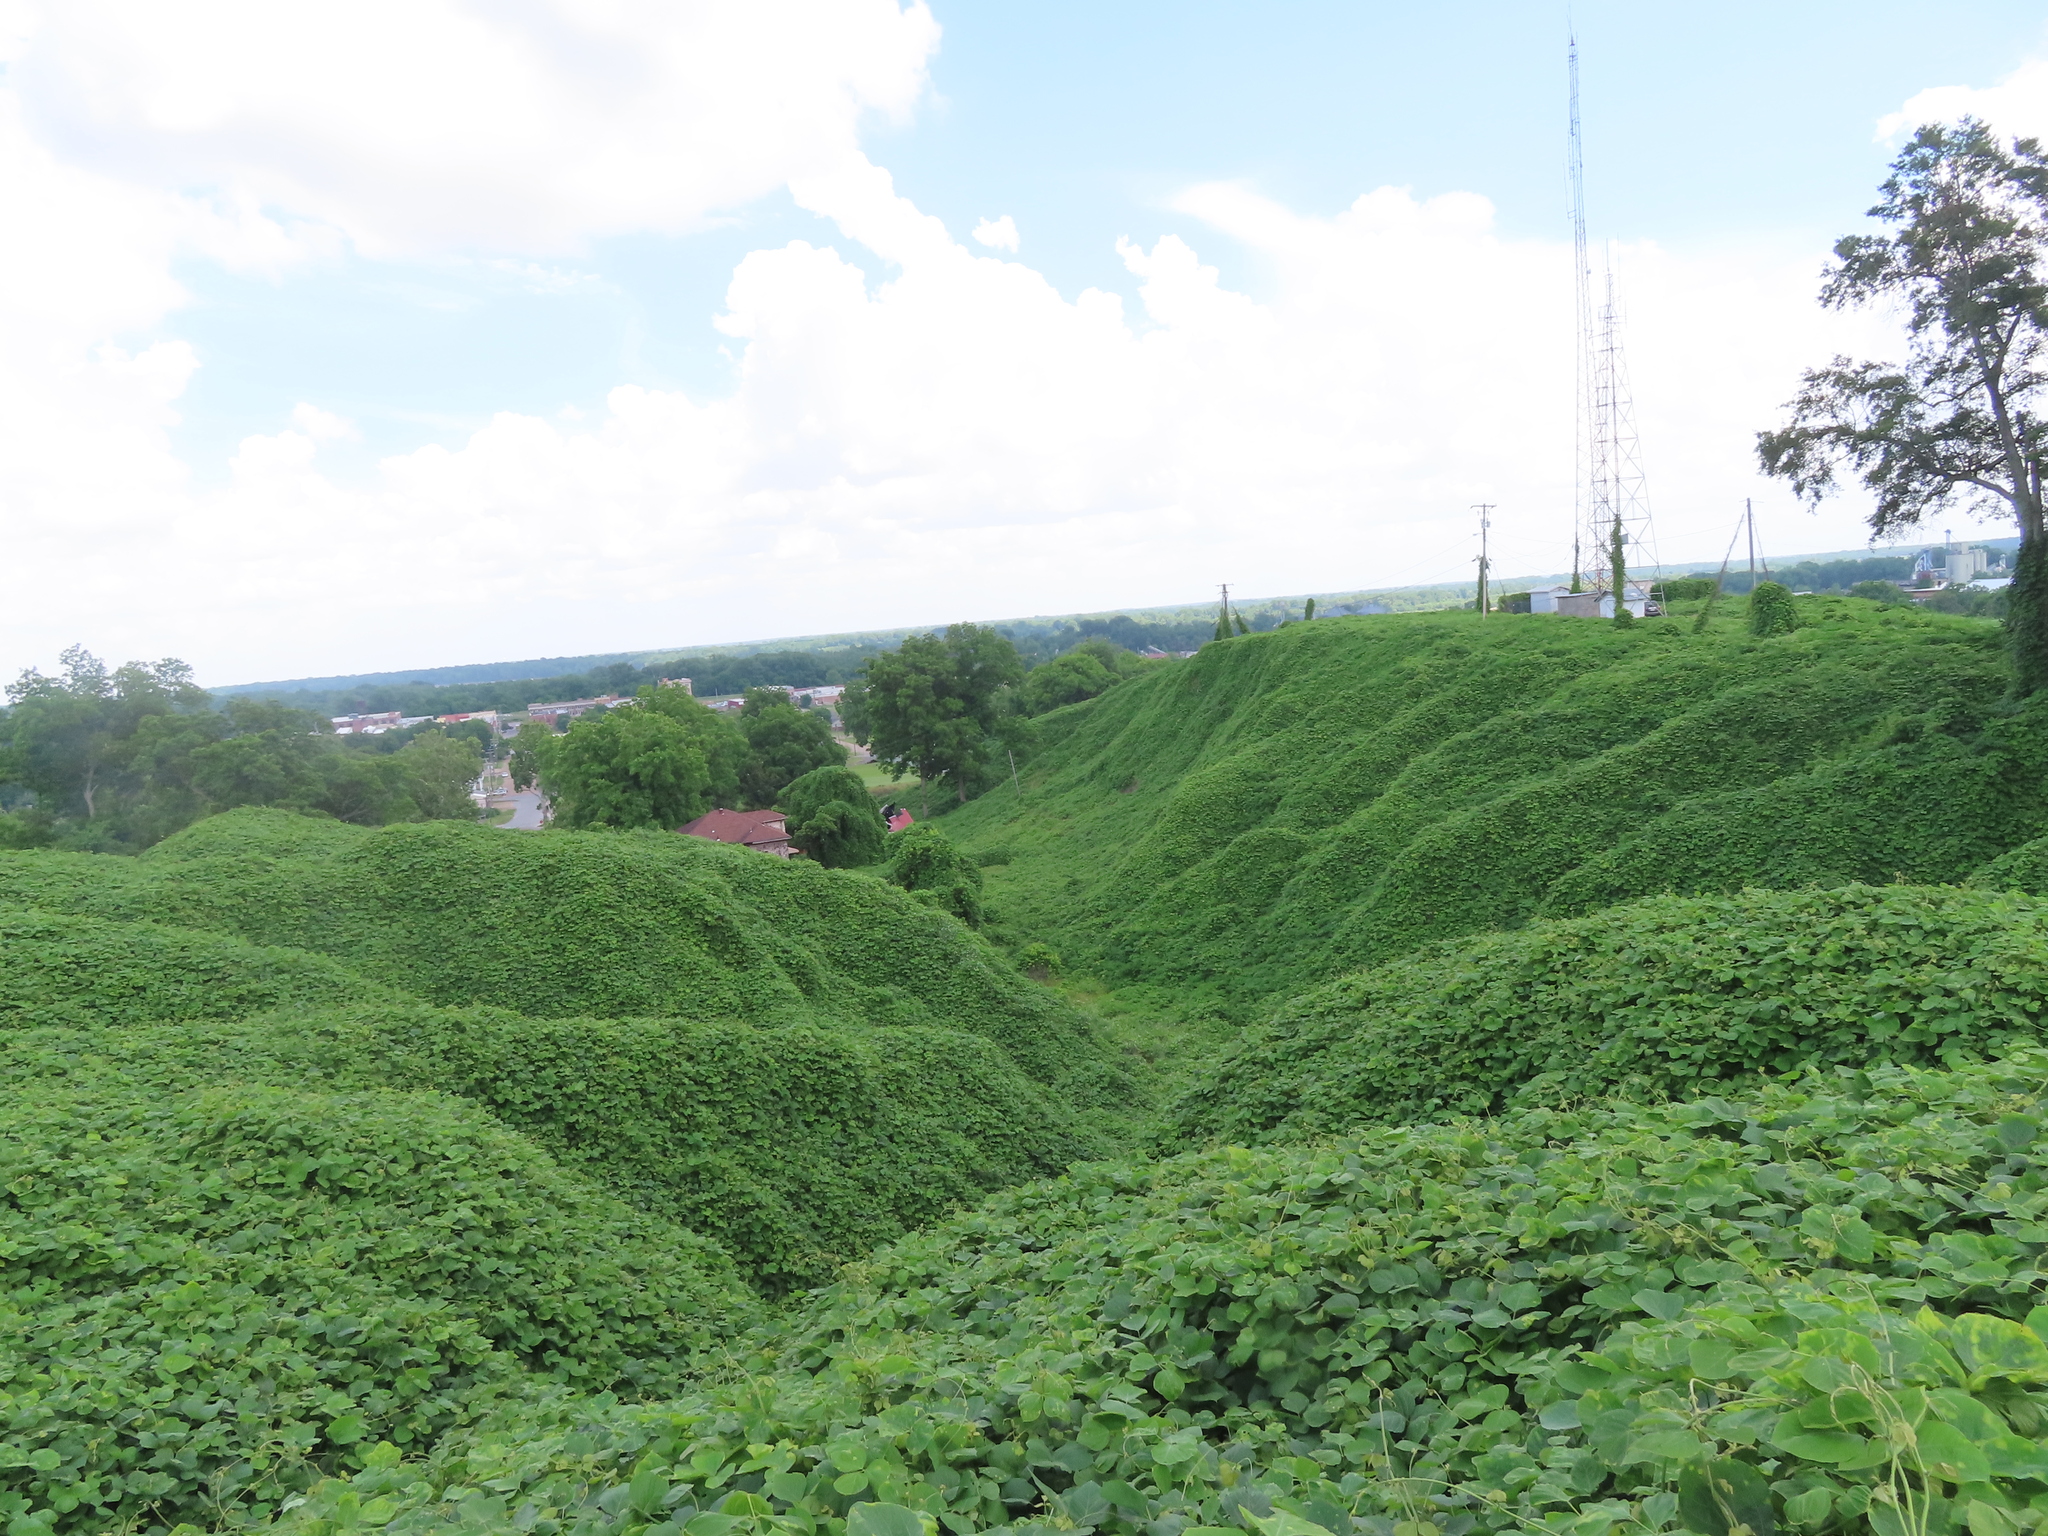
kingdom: Plantae
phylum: Tracheophyta
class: Magnoliopsida
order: Fabales
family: Fabaceae
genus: Pueraria
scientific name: Pueraria montana
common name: Kudzu
